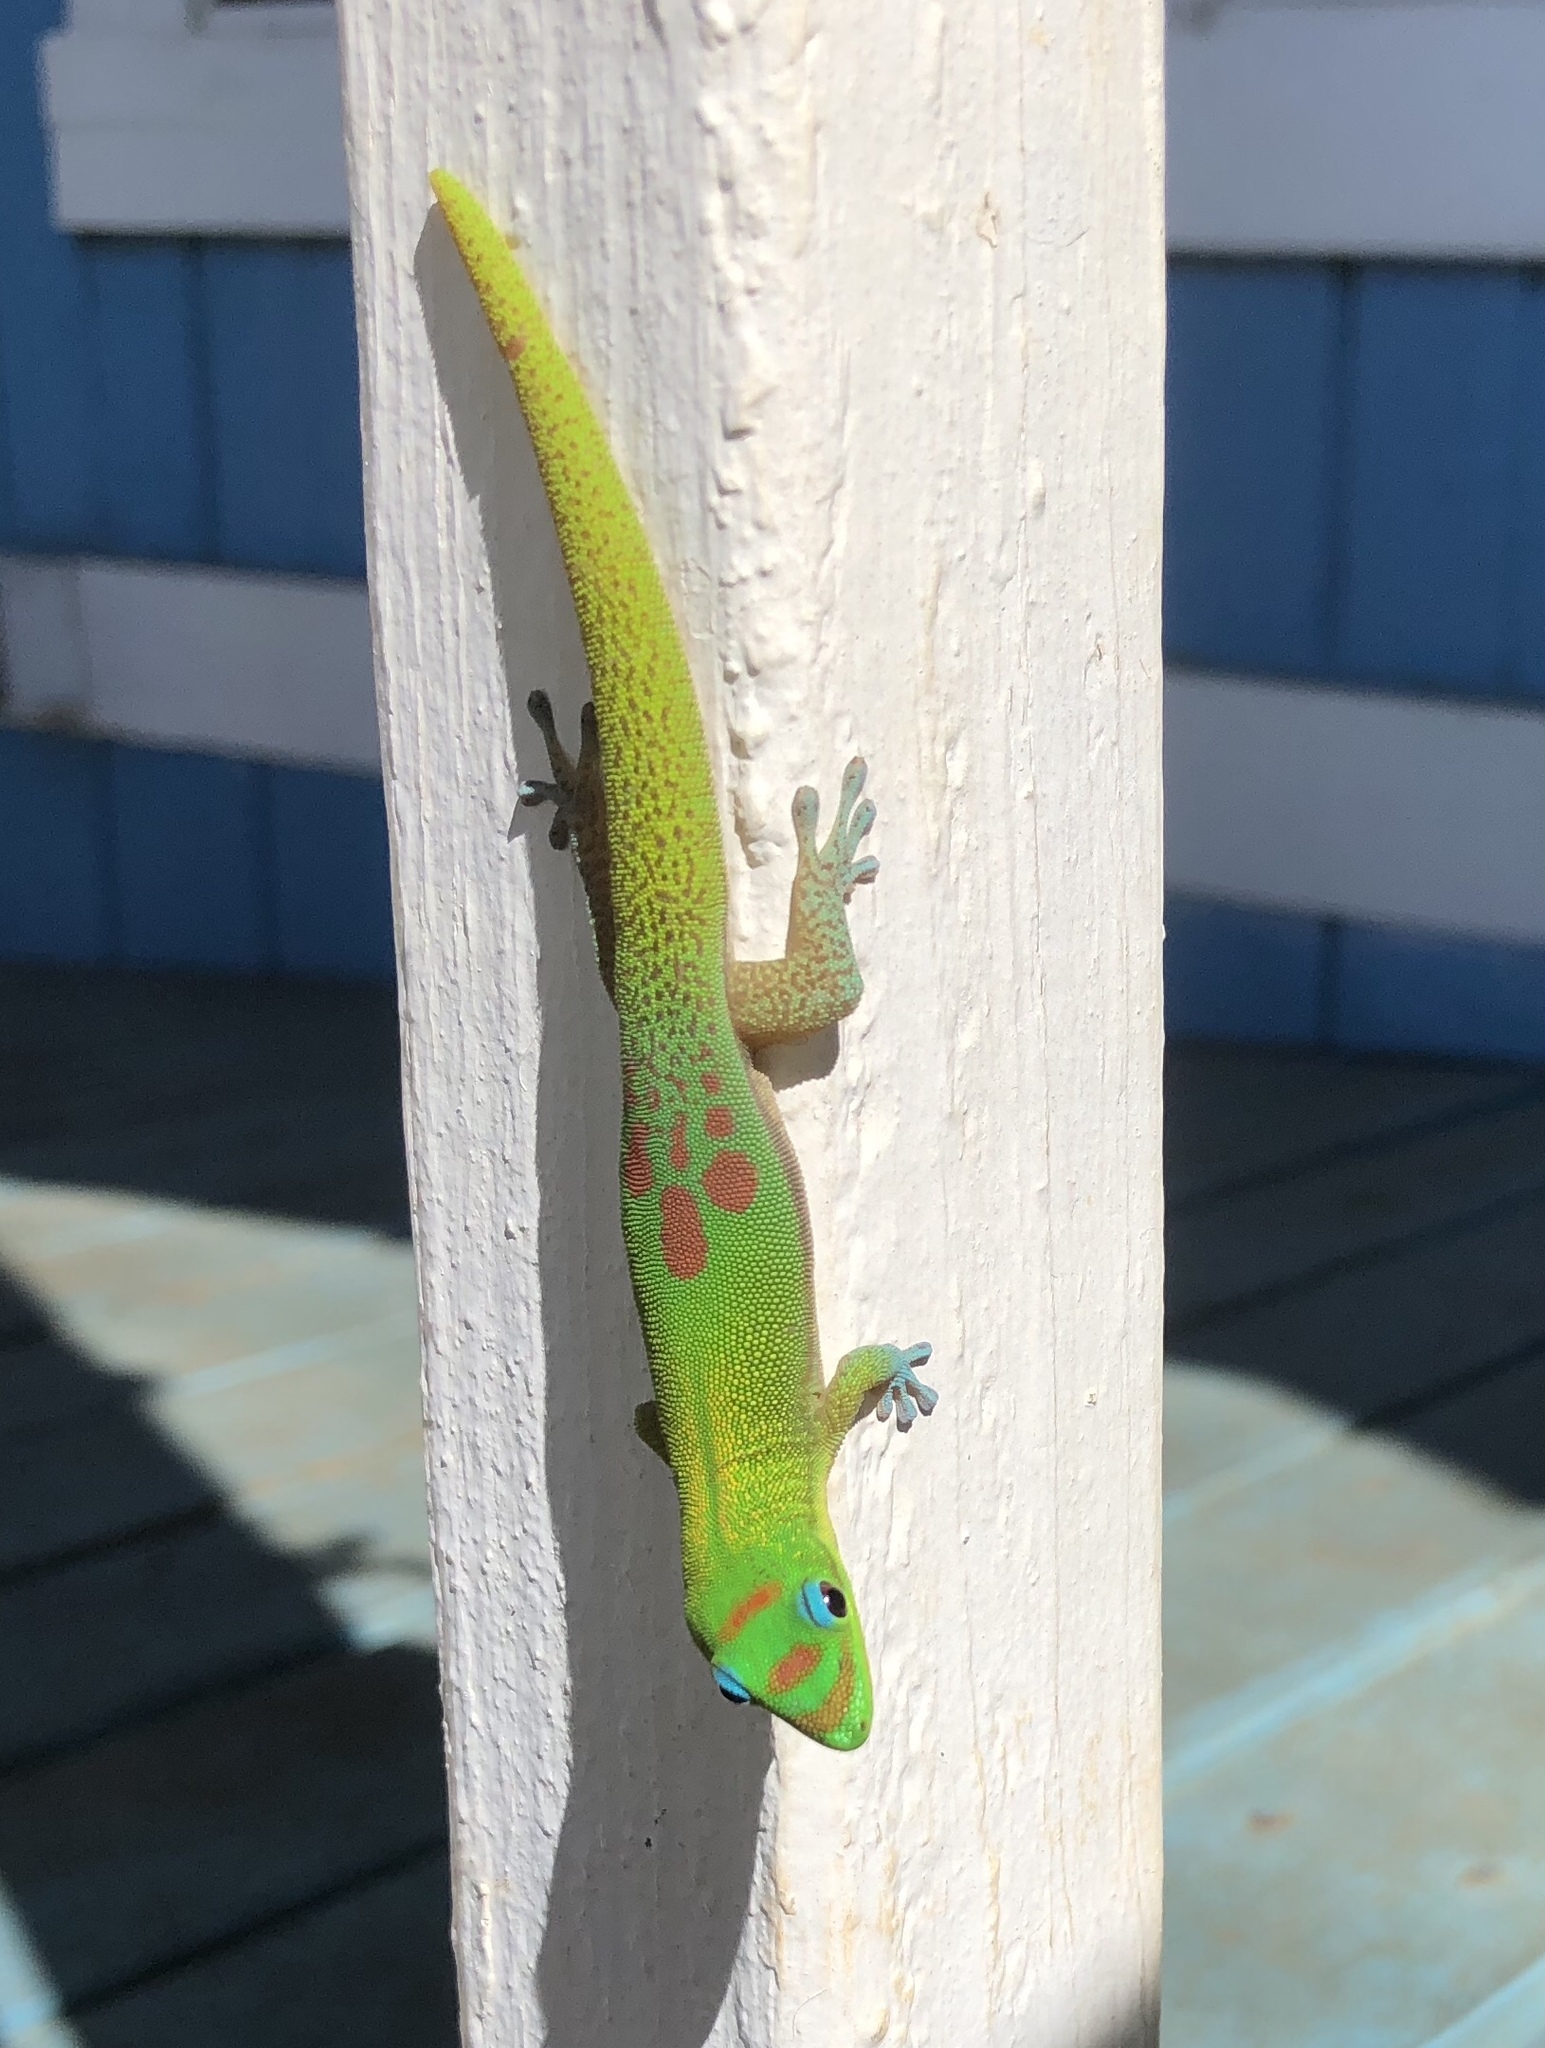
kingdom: Animalia
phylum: Chordata
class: Squamata
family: Gekkonidae
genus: Phelsuma
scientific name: Phelsuma laticauda
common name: Gold dust day gecko
